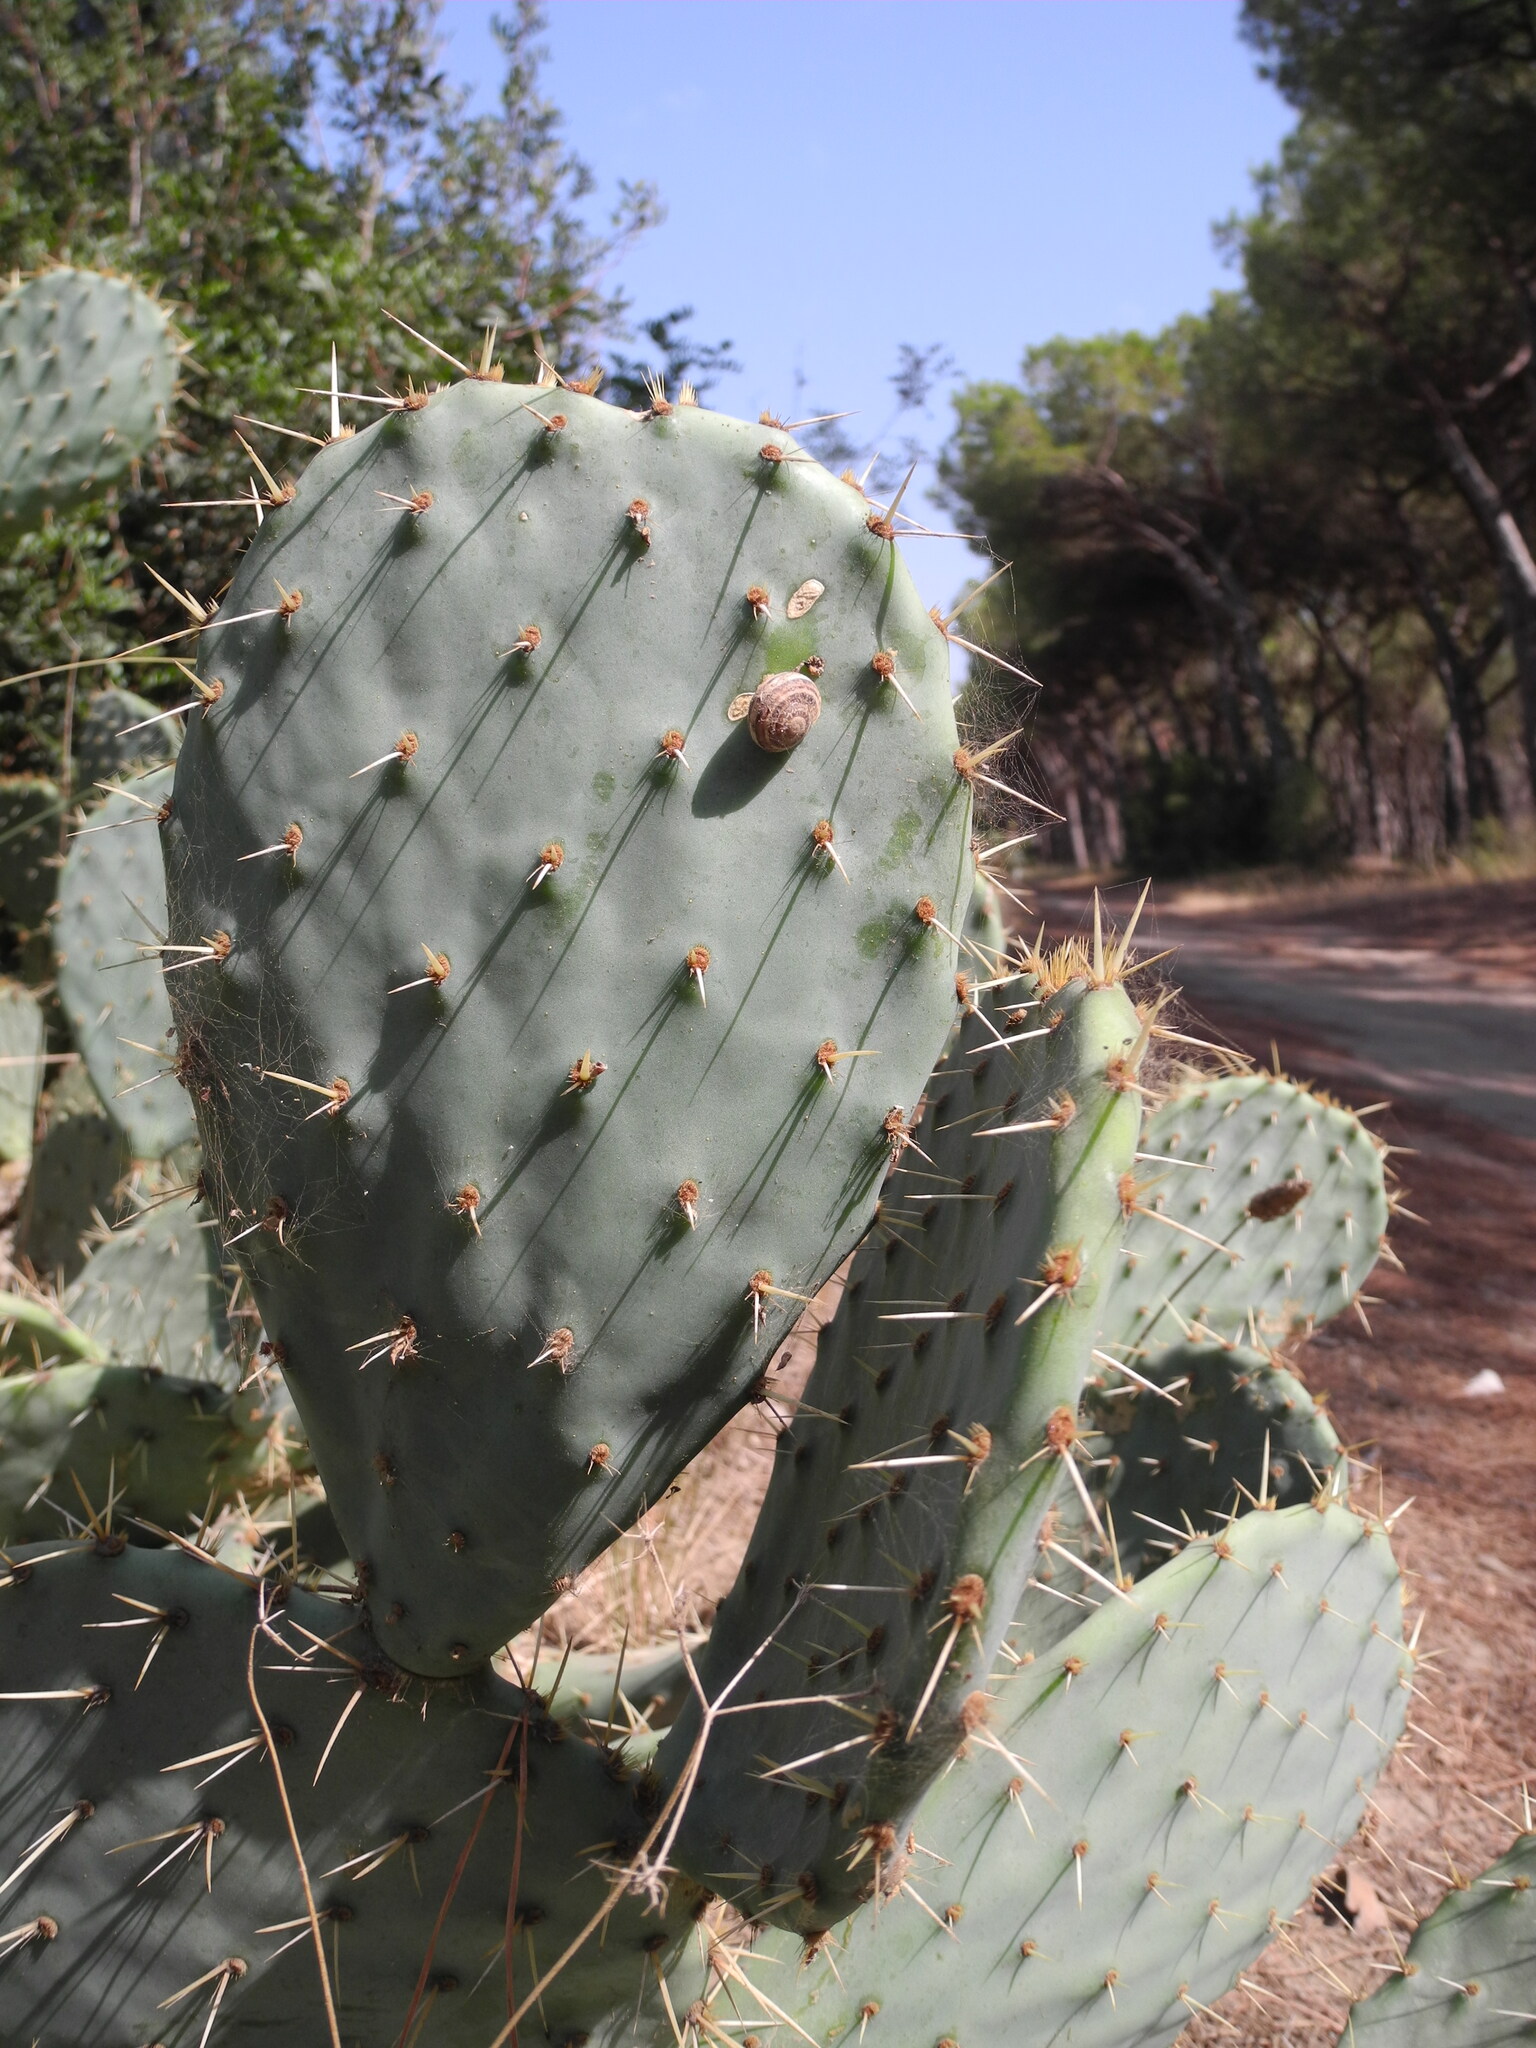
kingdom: Plantae
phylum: Tracheophyta
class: Magnoliopsida
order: Caryophyllales
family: Cactaceae
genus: Opuntia
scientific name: Opuntia orbiculata
